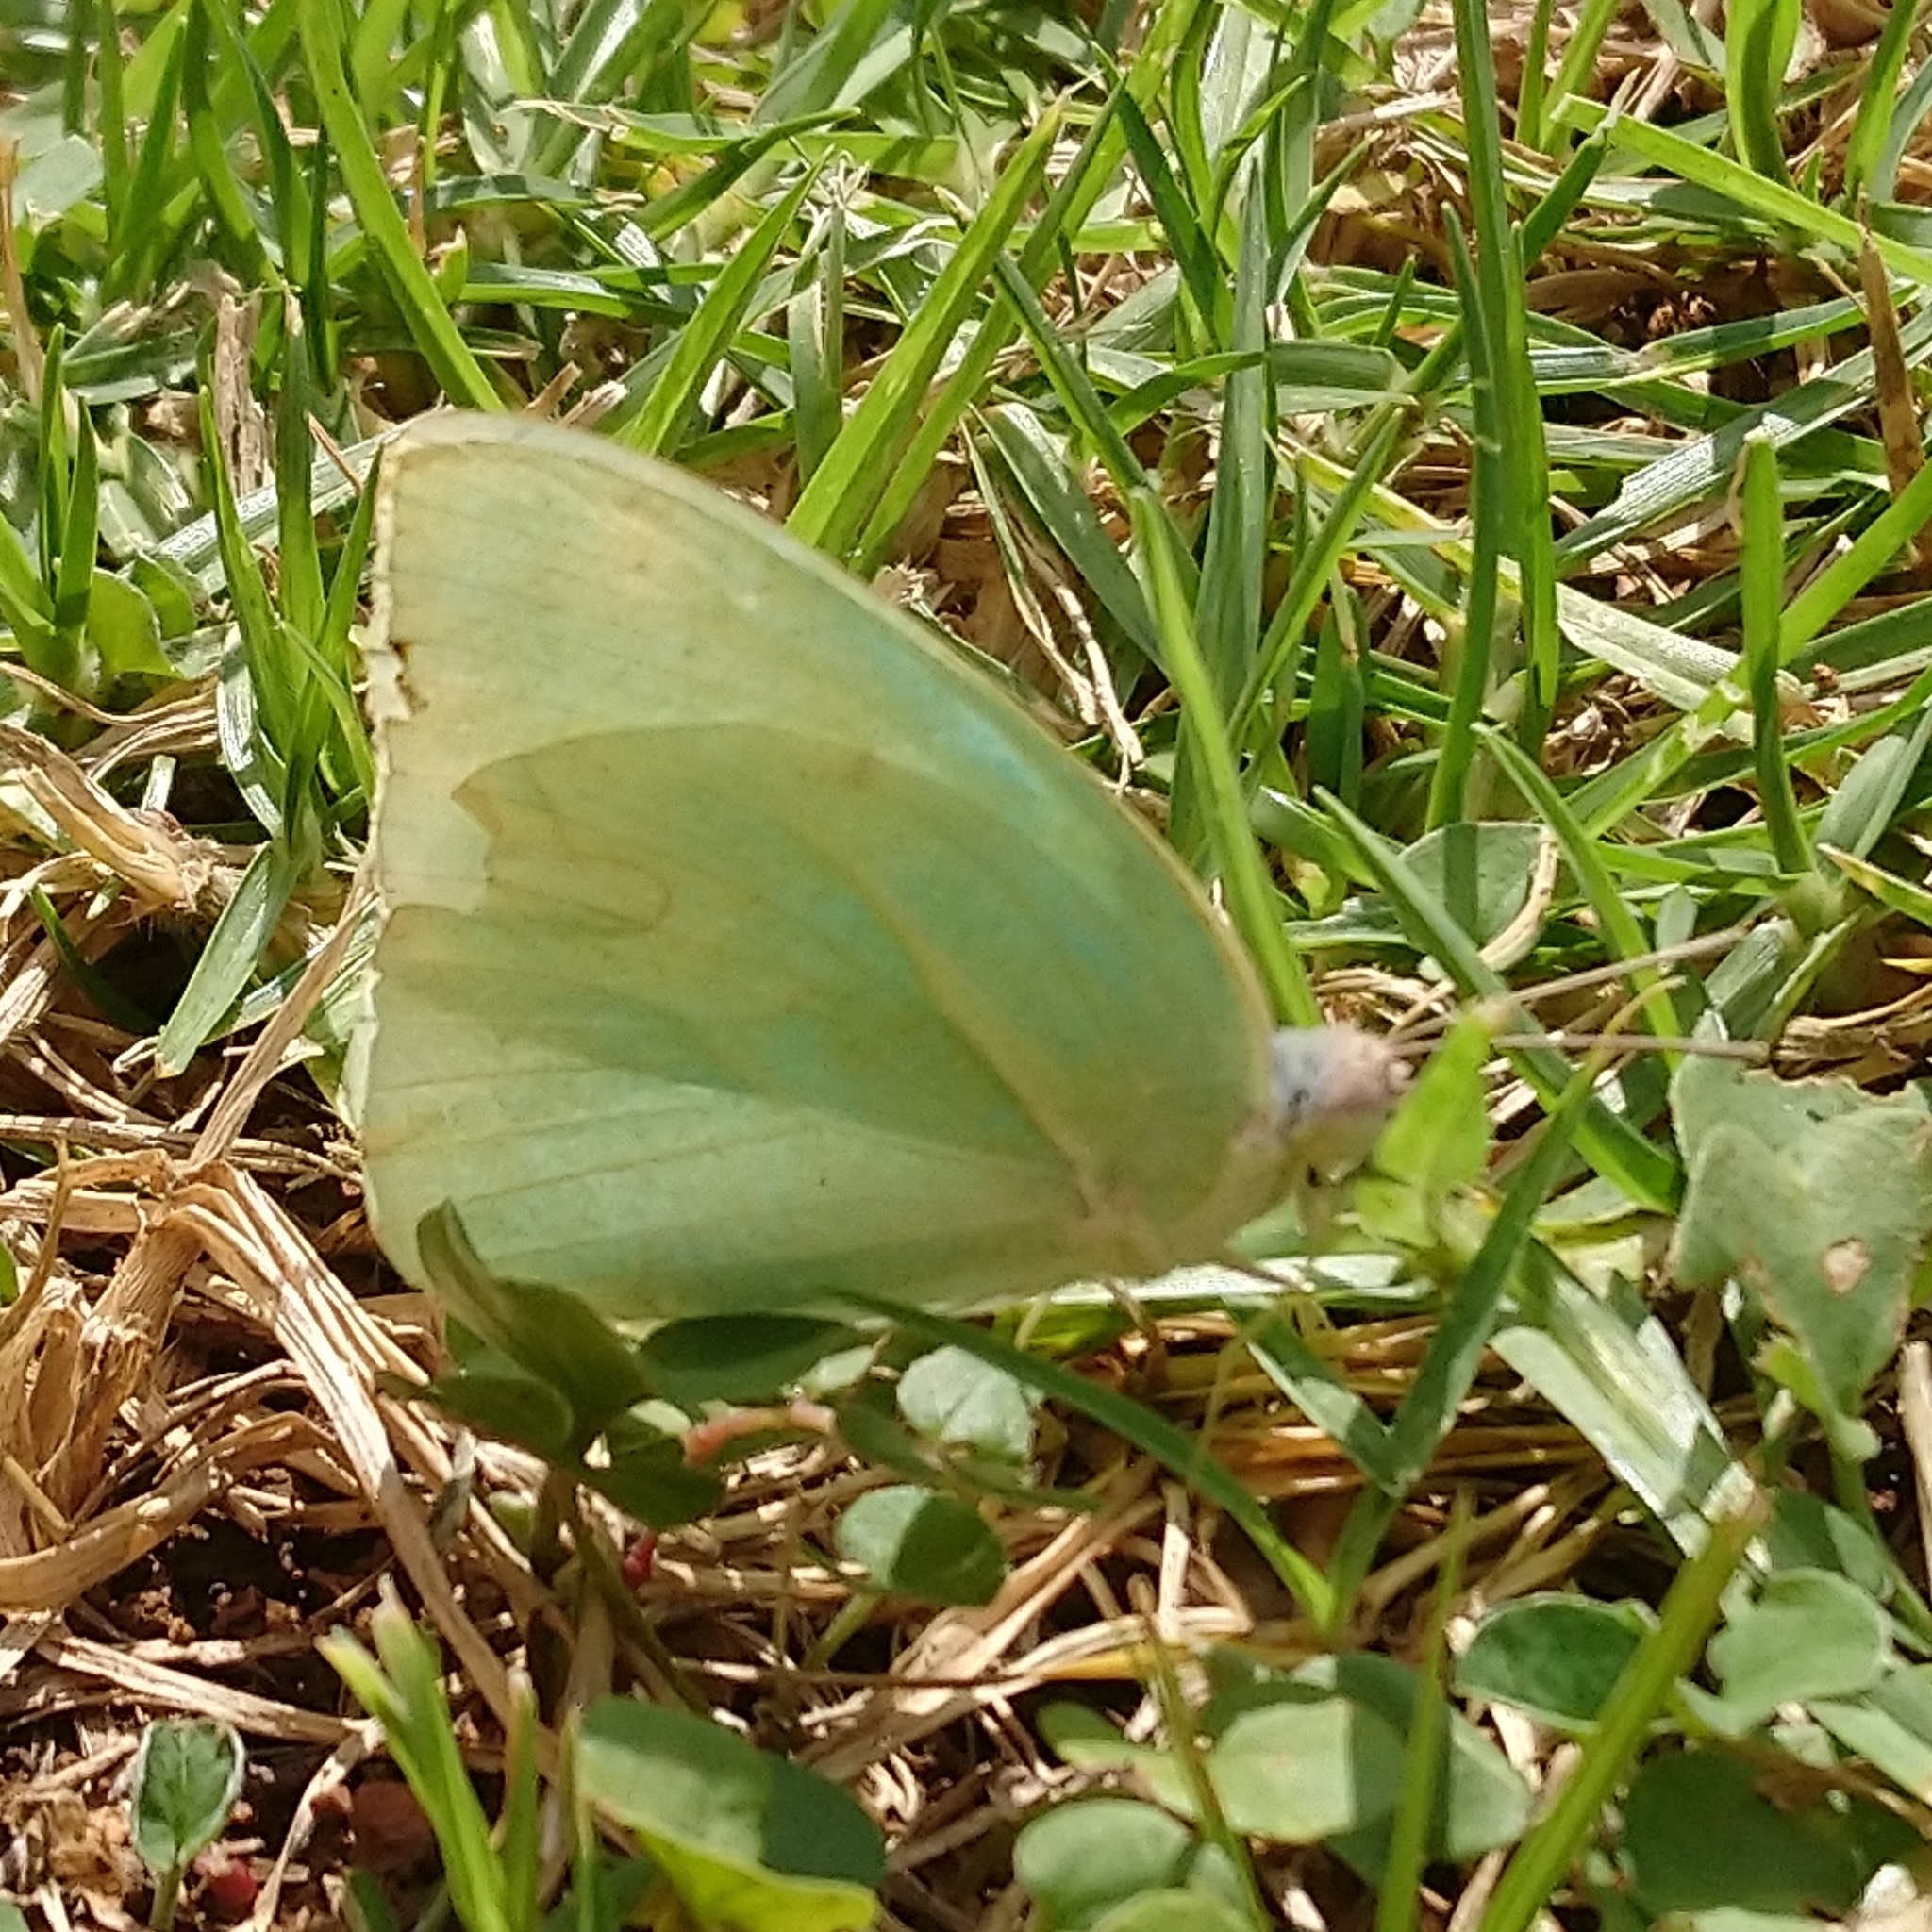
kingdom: Animalia
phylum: Arthropoda
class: Insecta
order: Lepidoptera
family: Pieridae
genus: Catopsilia
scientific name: Catopsilia florella
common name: African migrant
